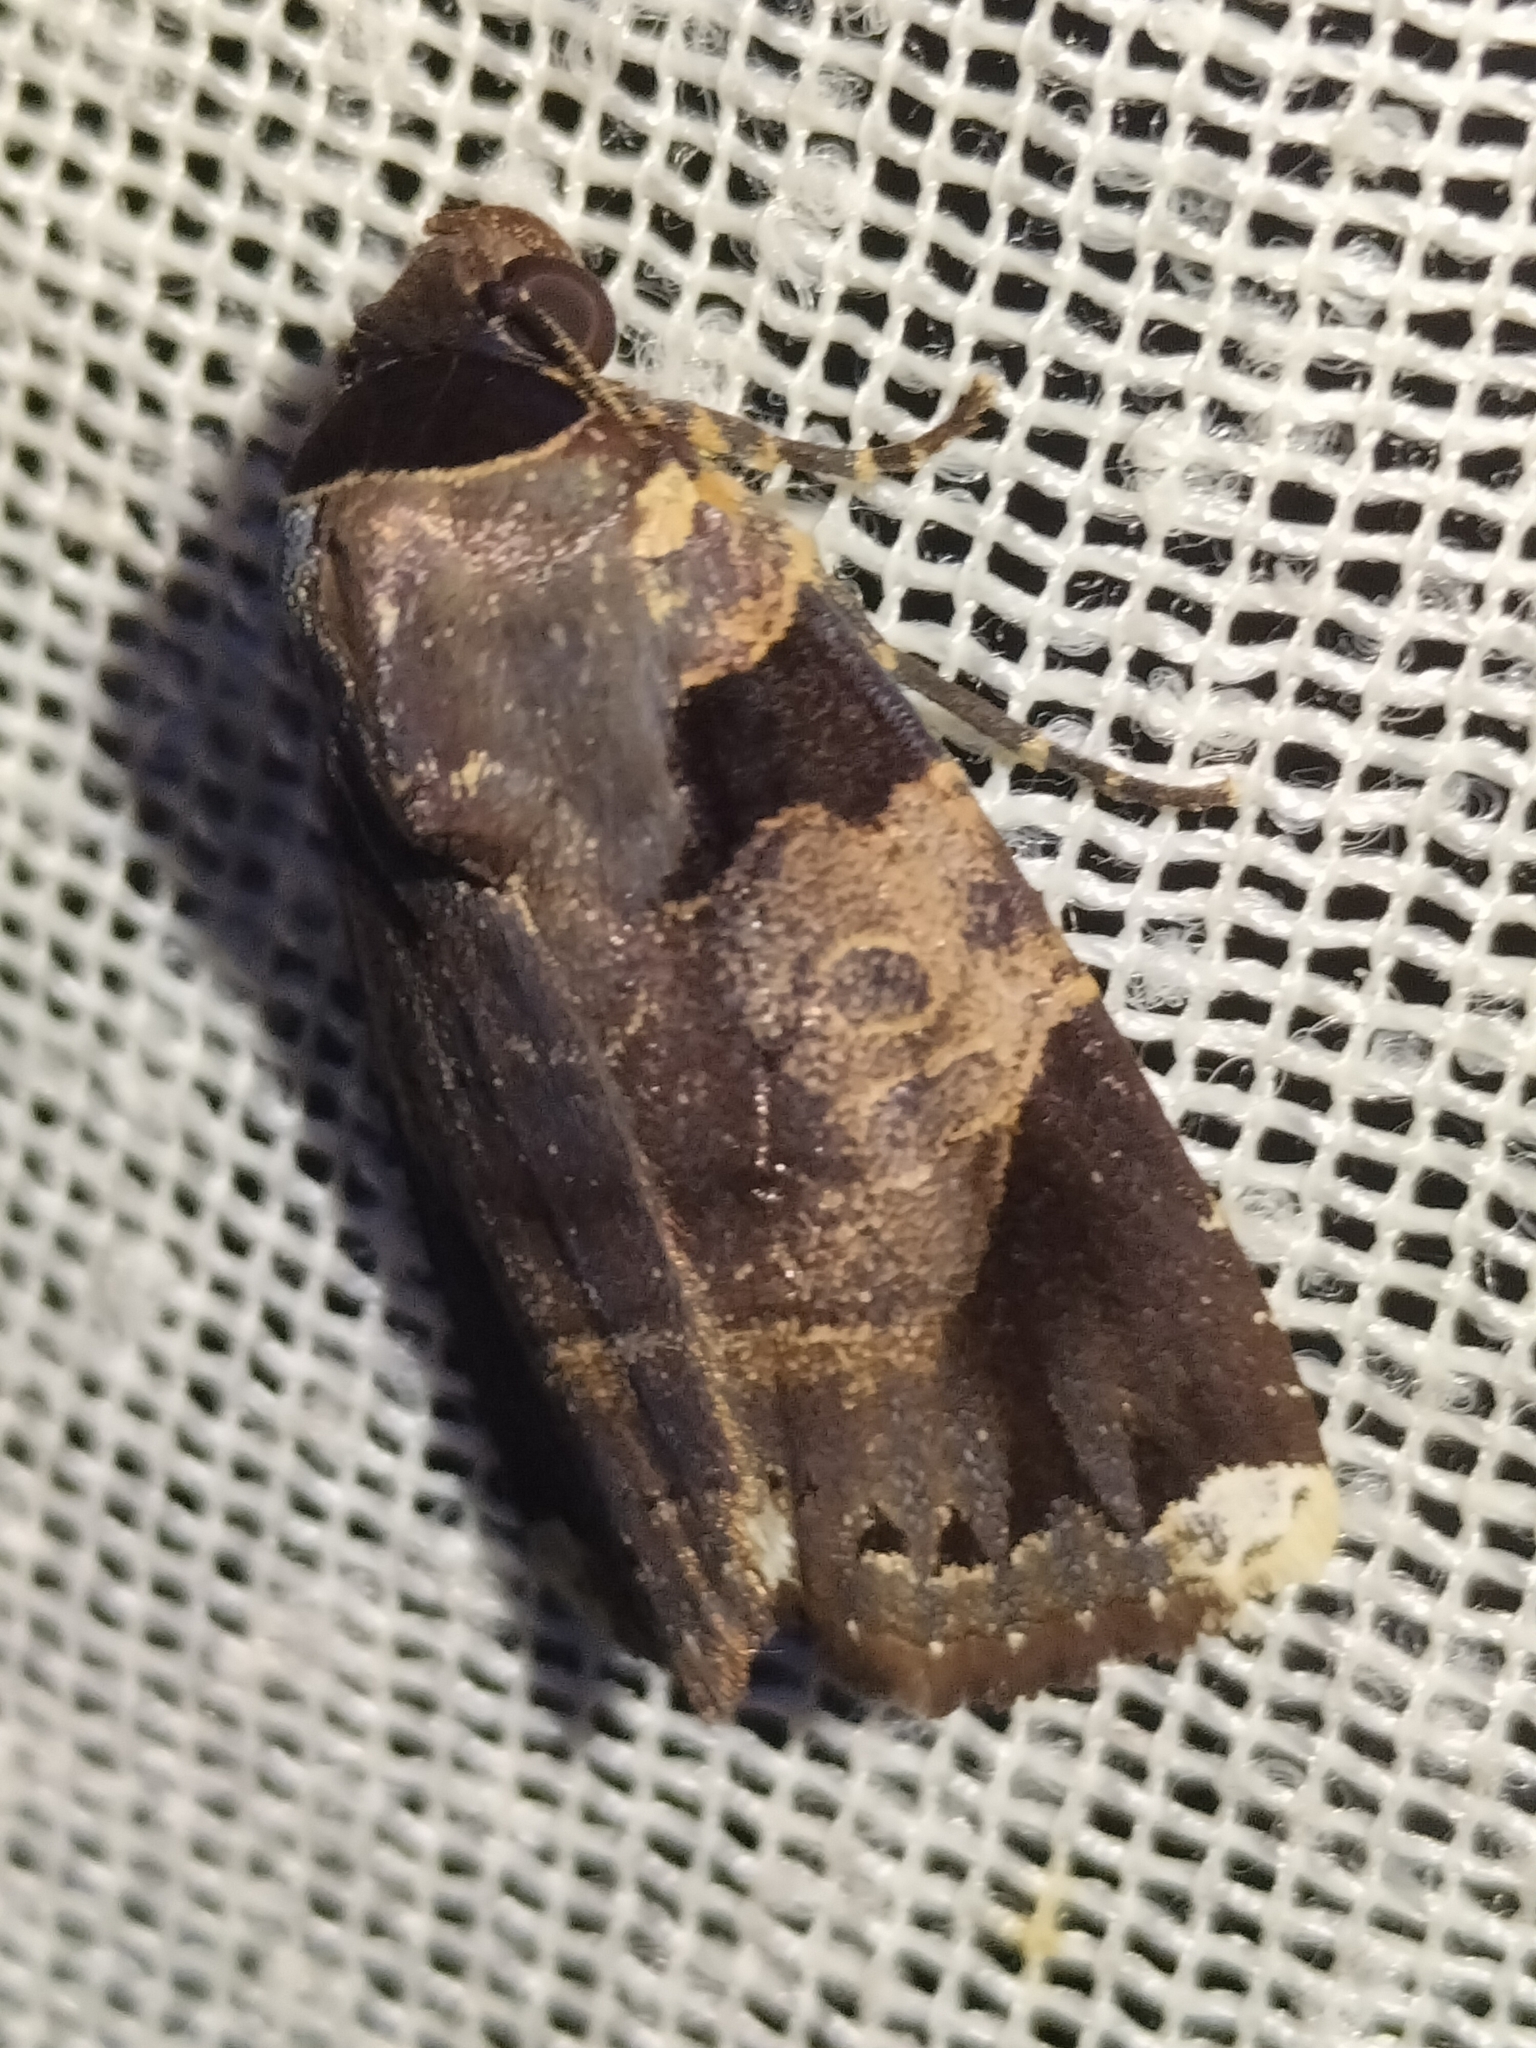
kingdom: Animalia
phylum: Arthropoda
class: Insecta
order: Lepidoptera
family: Noctuidae
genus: Callyna
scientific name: Callyna leuconota
